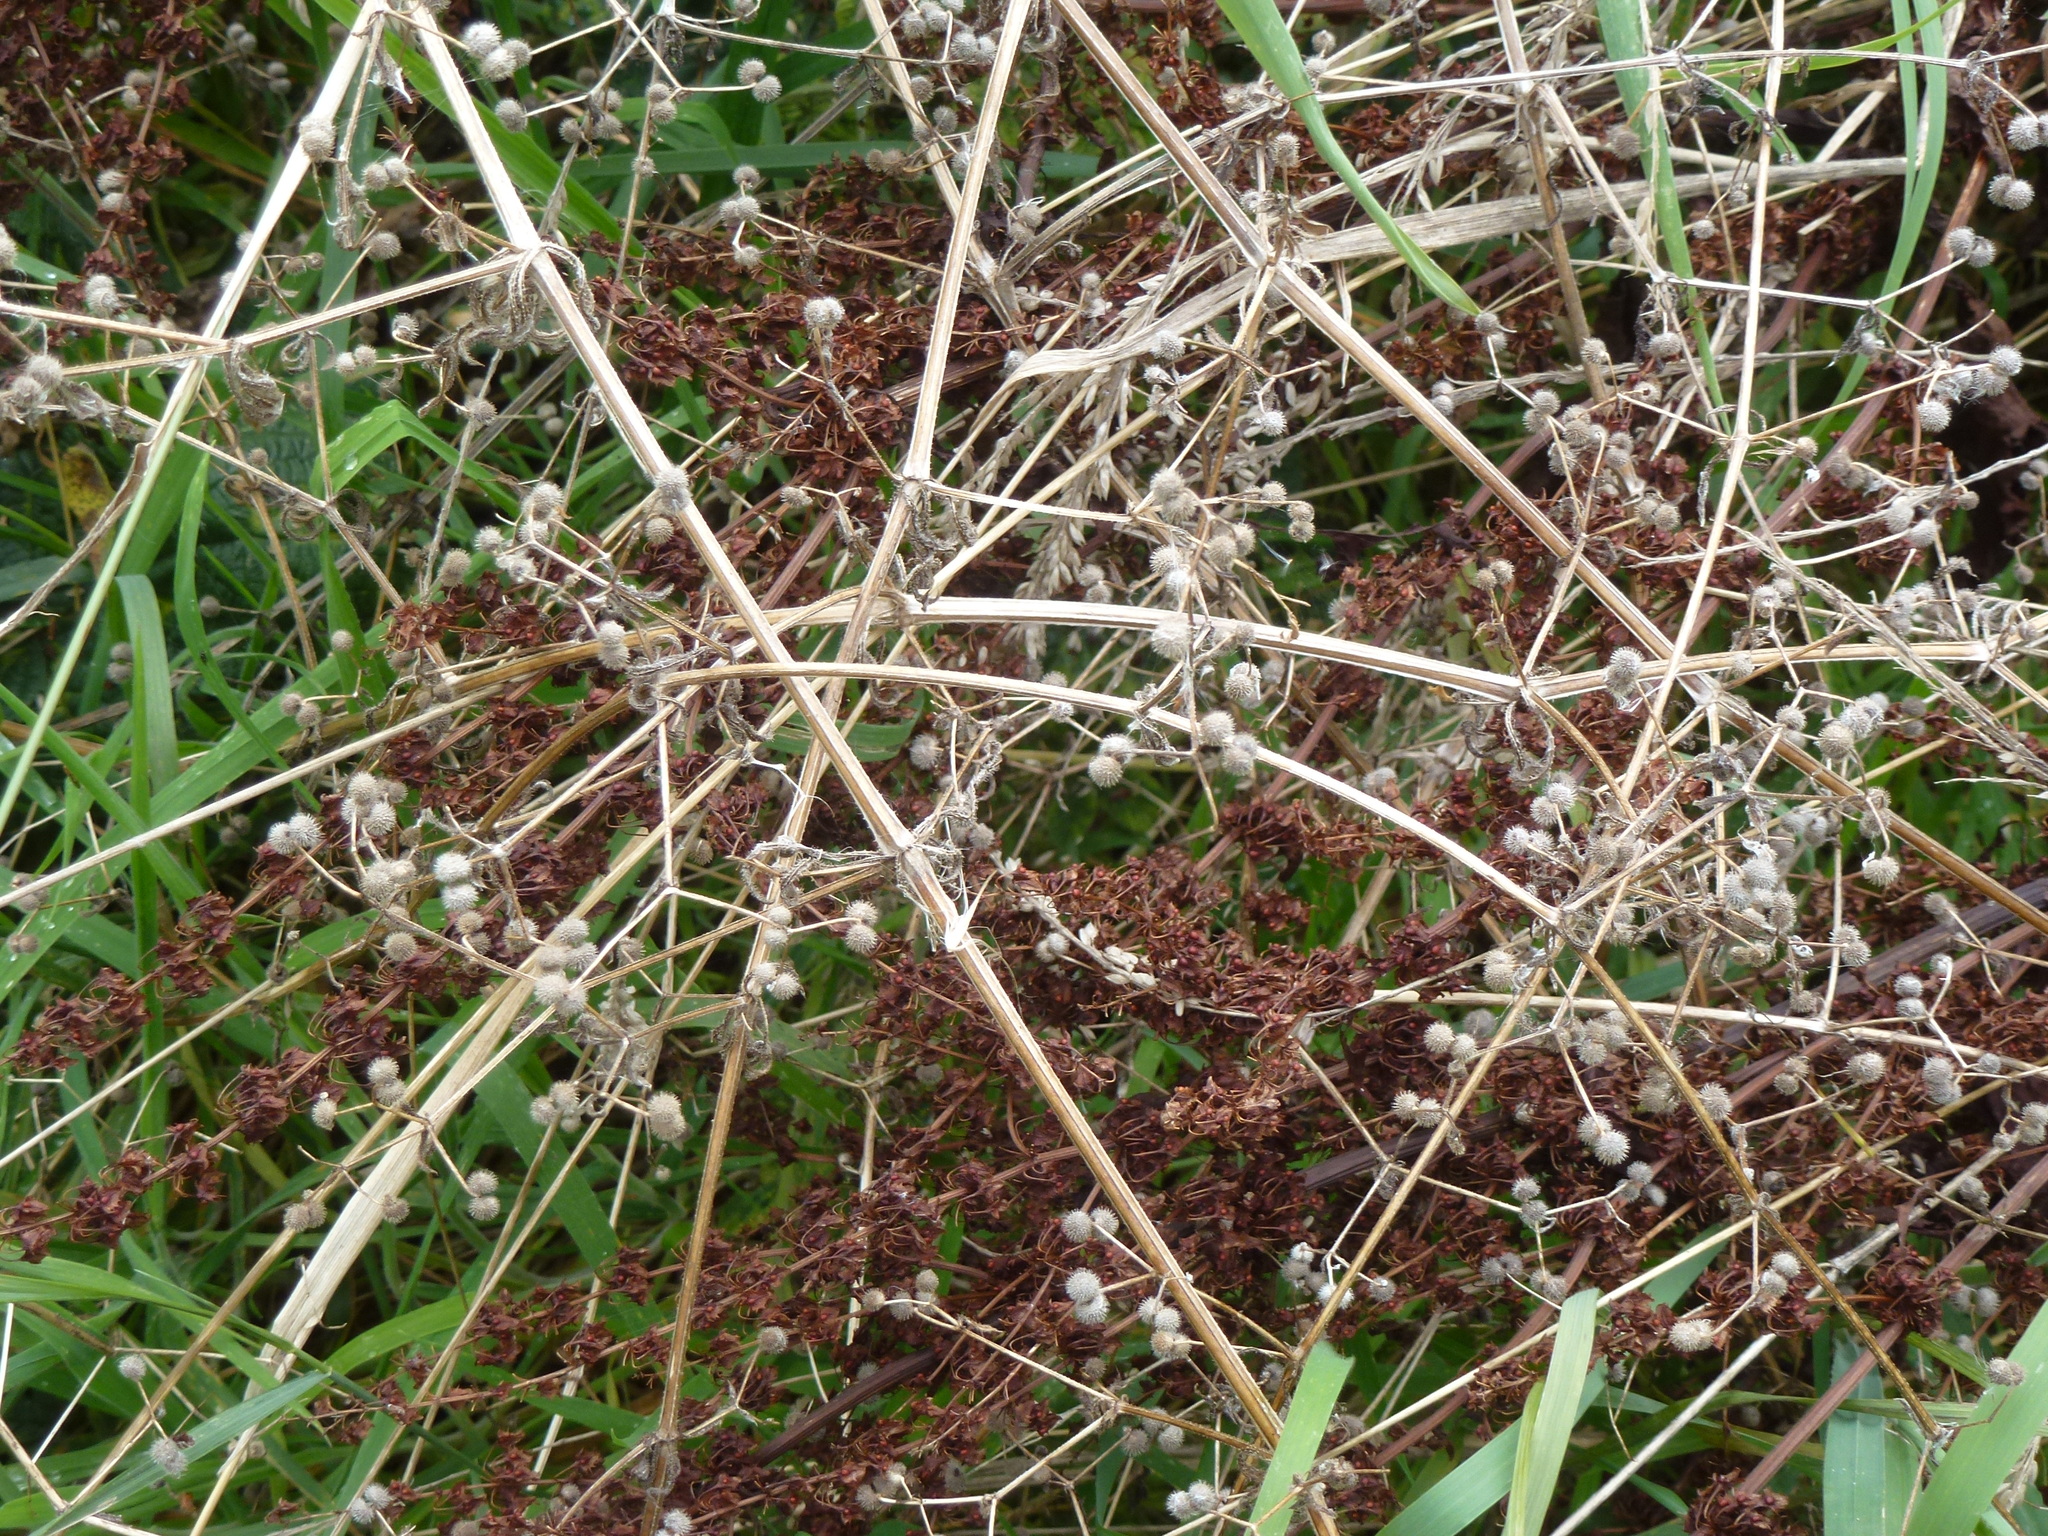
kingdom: Plantae
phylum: Tracheophyta
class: Magnoliopsida
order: Gentianales
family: Rubiaceae
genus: Galium
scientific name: Galium aparine
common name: Cleavers
